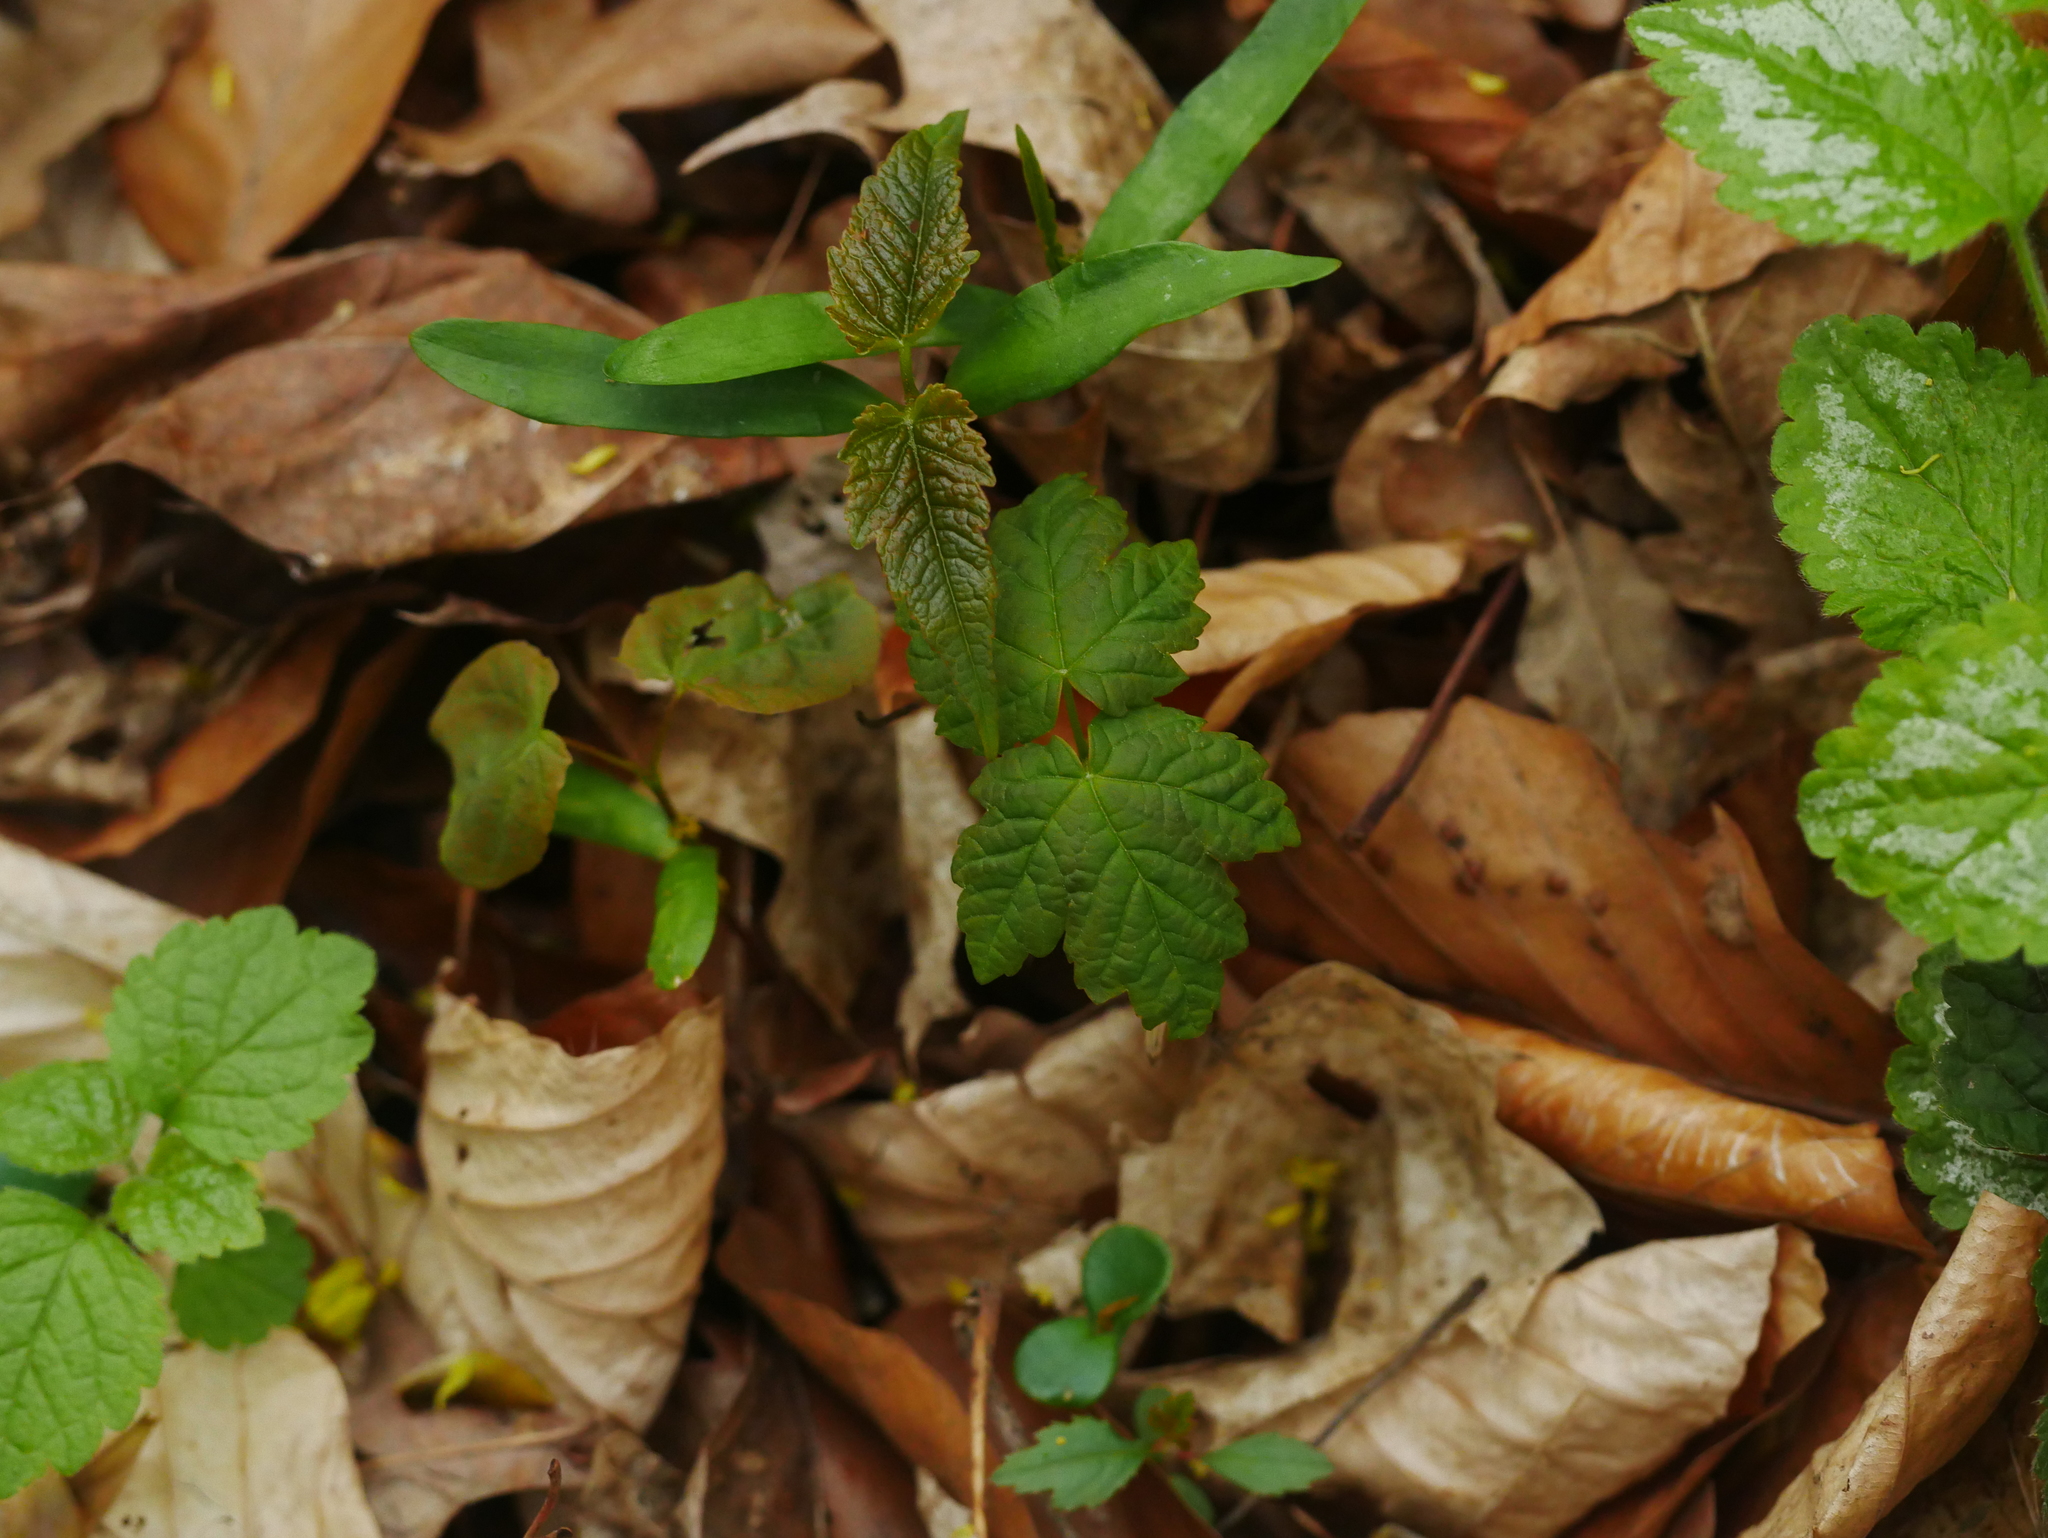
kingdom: Plantae
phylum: Tracheophyta
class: Magnoliopsida
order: Sapindales
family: Sapindaceae
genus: Acer
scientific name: Acer pseudoplatanus
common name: Sycamore
